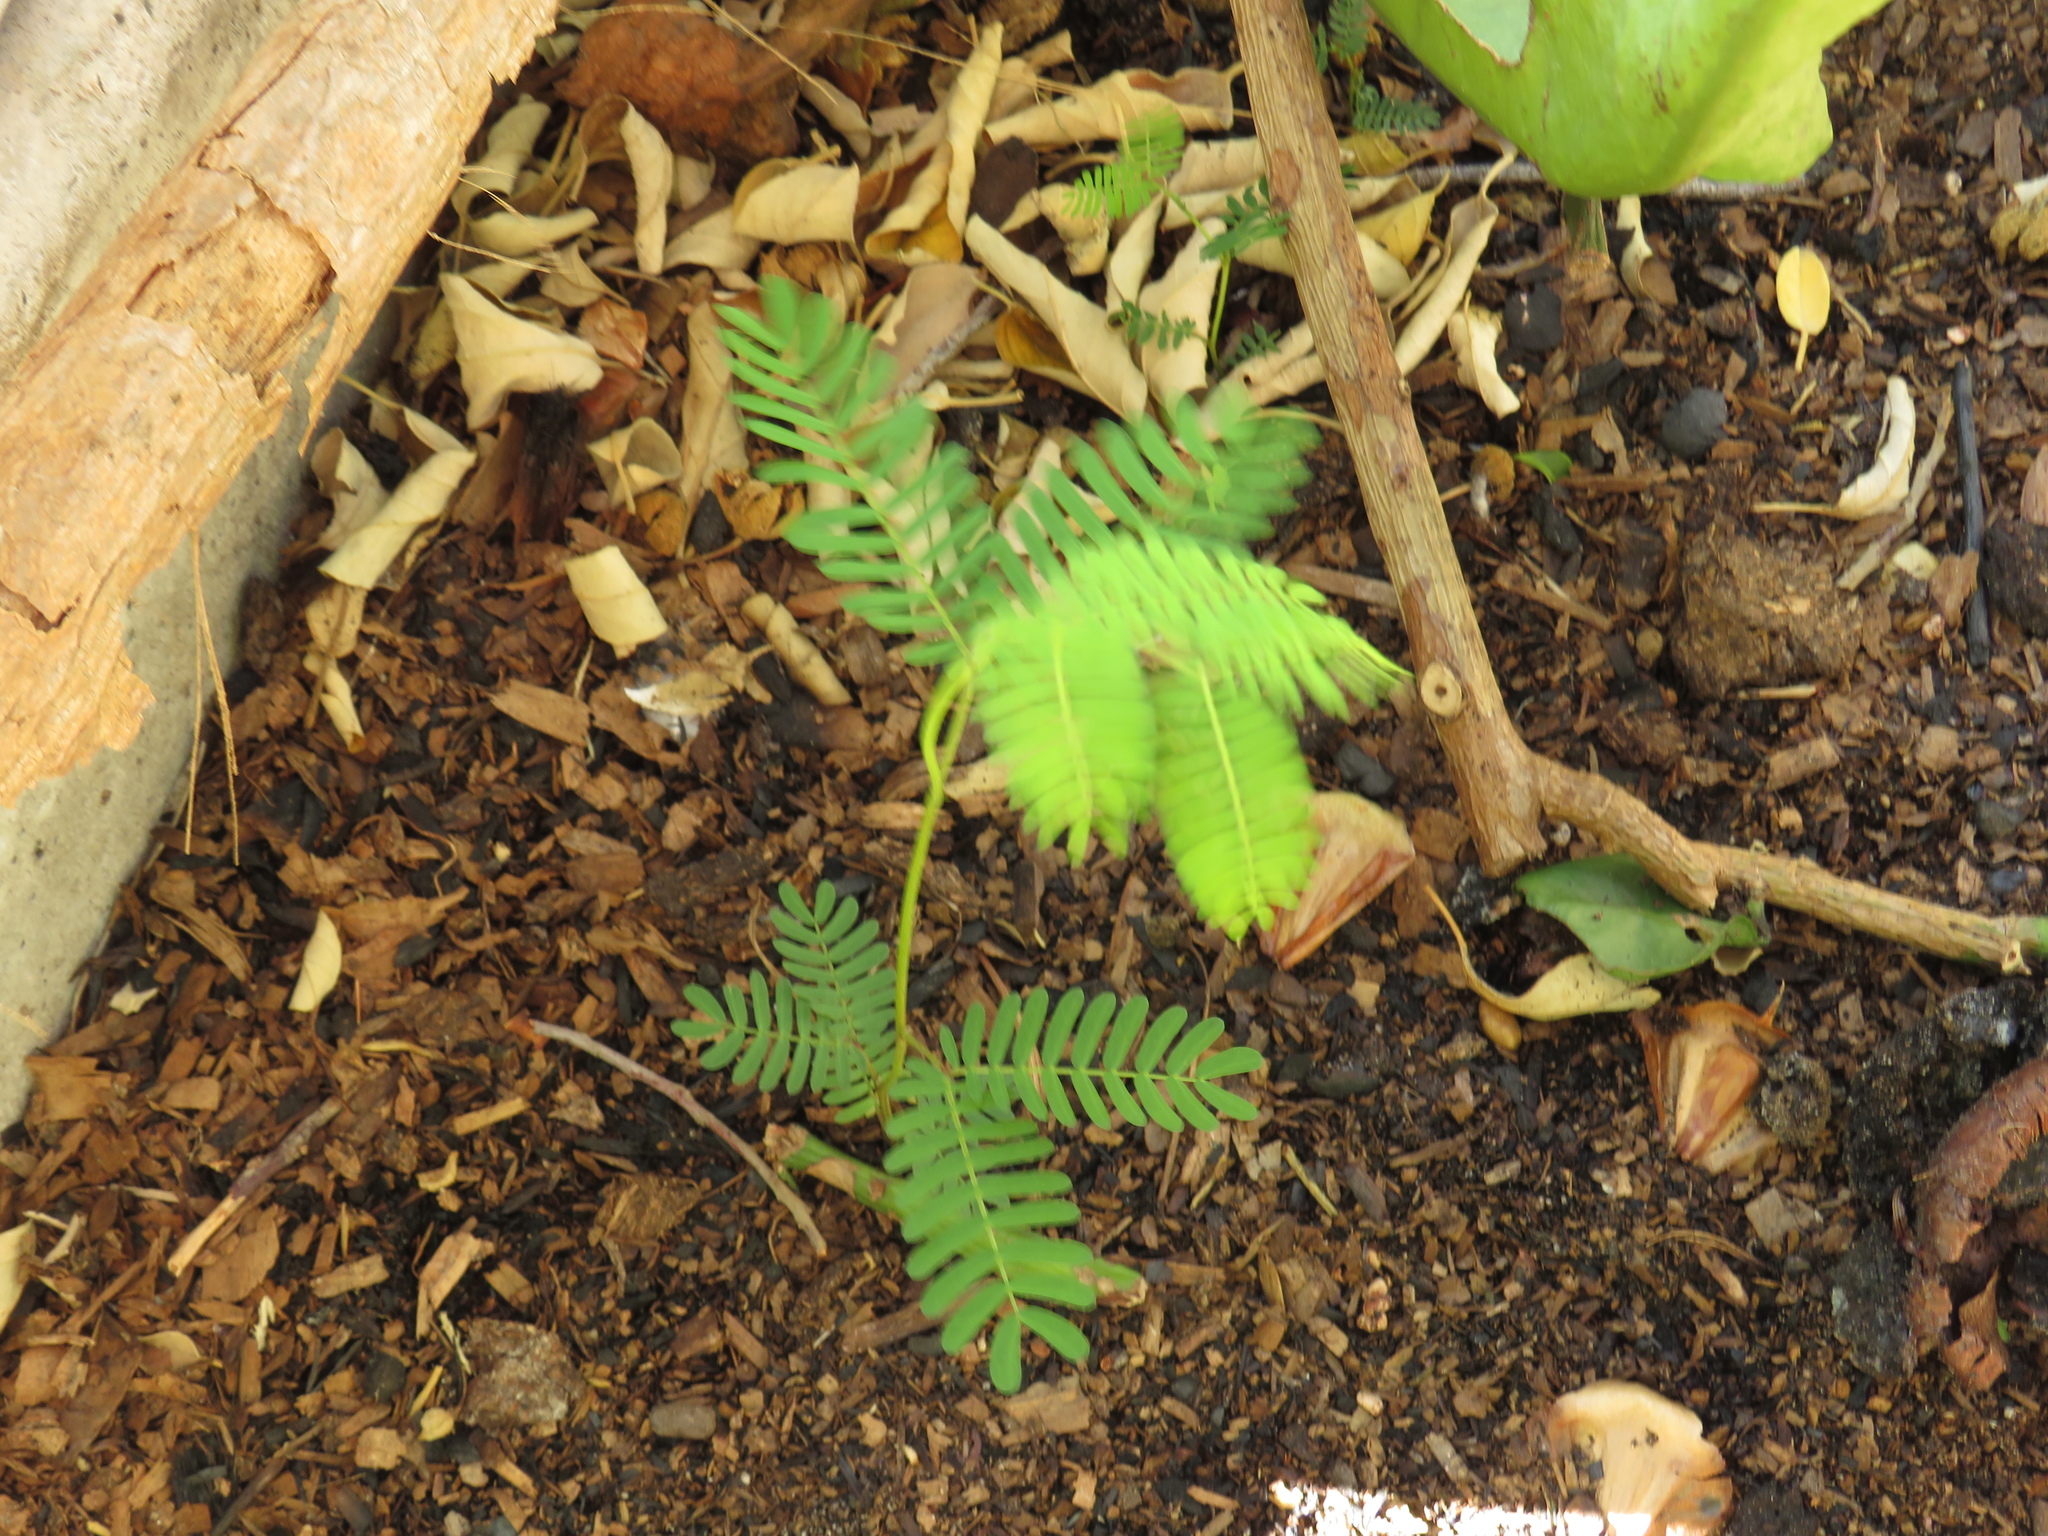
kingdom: Plantae
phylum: Tracheophyta
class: Magnoliopsida
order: Fabales
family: Fabaceae
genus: Paraserianthes
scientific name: Paraserianthes lophantha
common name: Plume albizia
